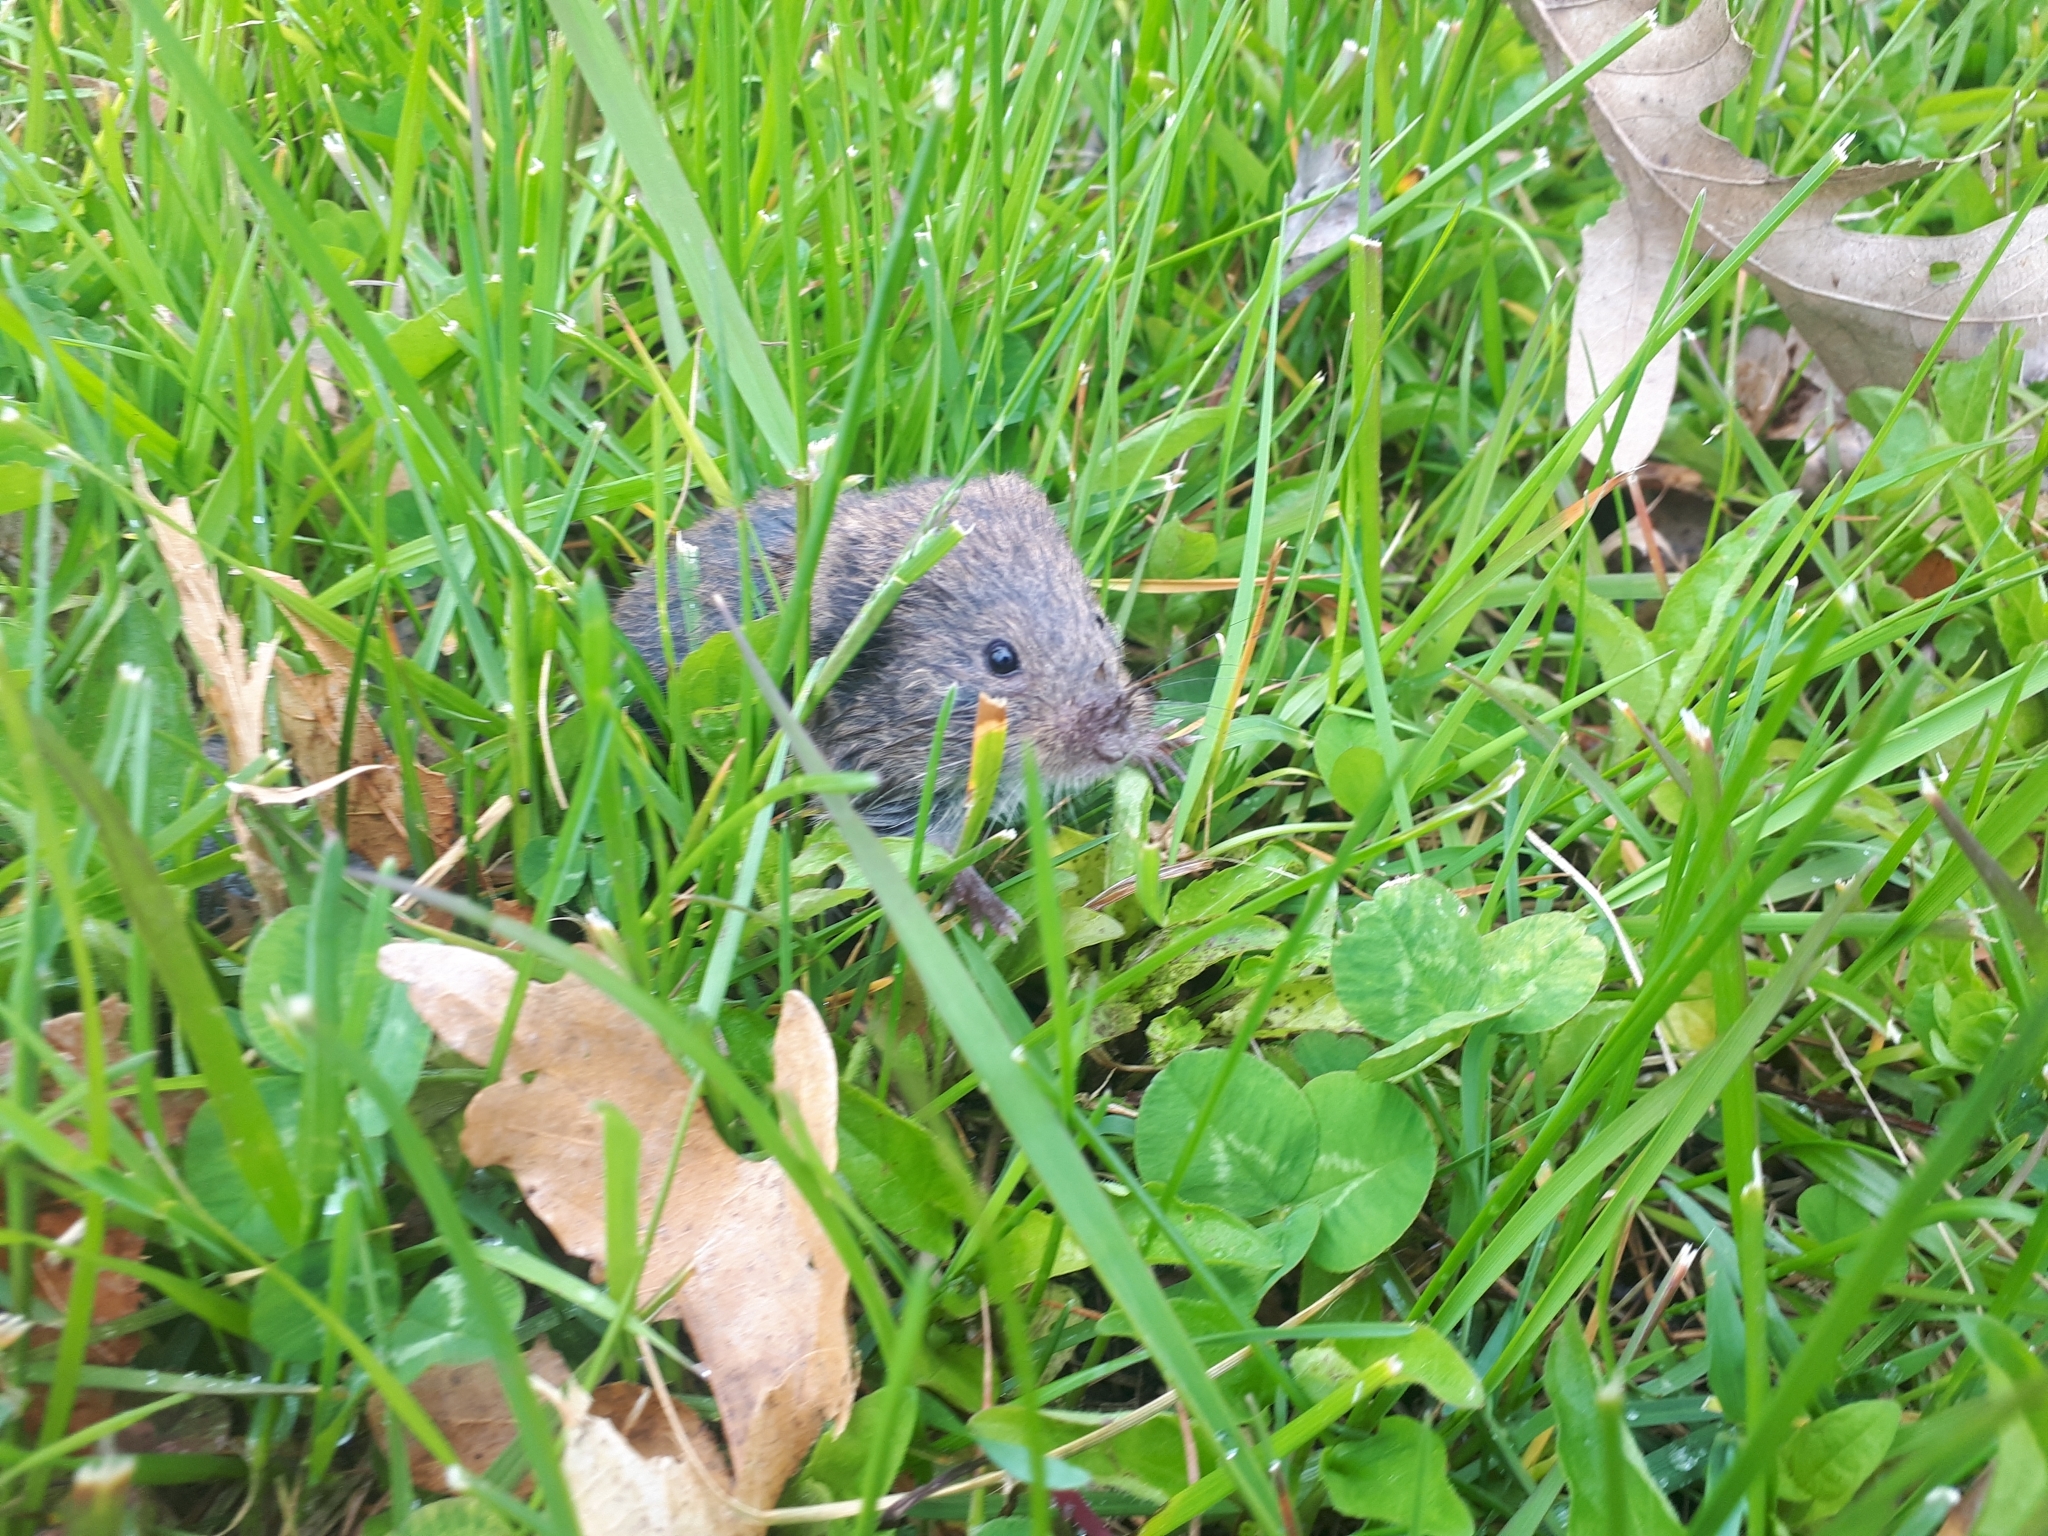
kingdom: Animalia
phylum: Chordata
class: Mammalia
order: Rodentia
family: Cricetidae
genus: Microtus
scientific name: Microtus pennsylvanicus
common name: Meadow vole
